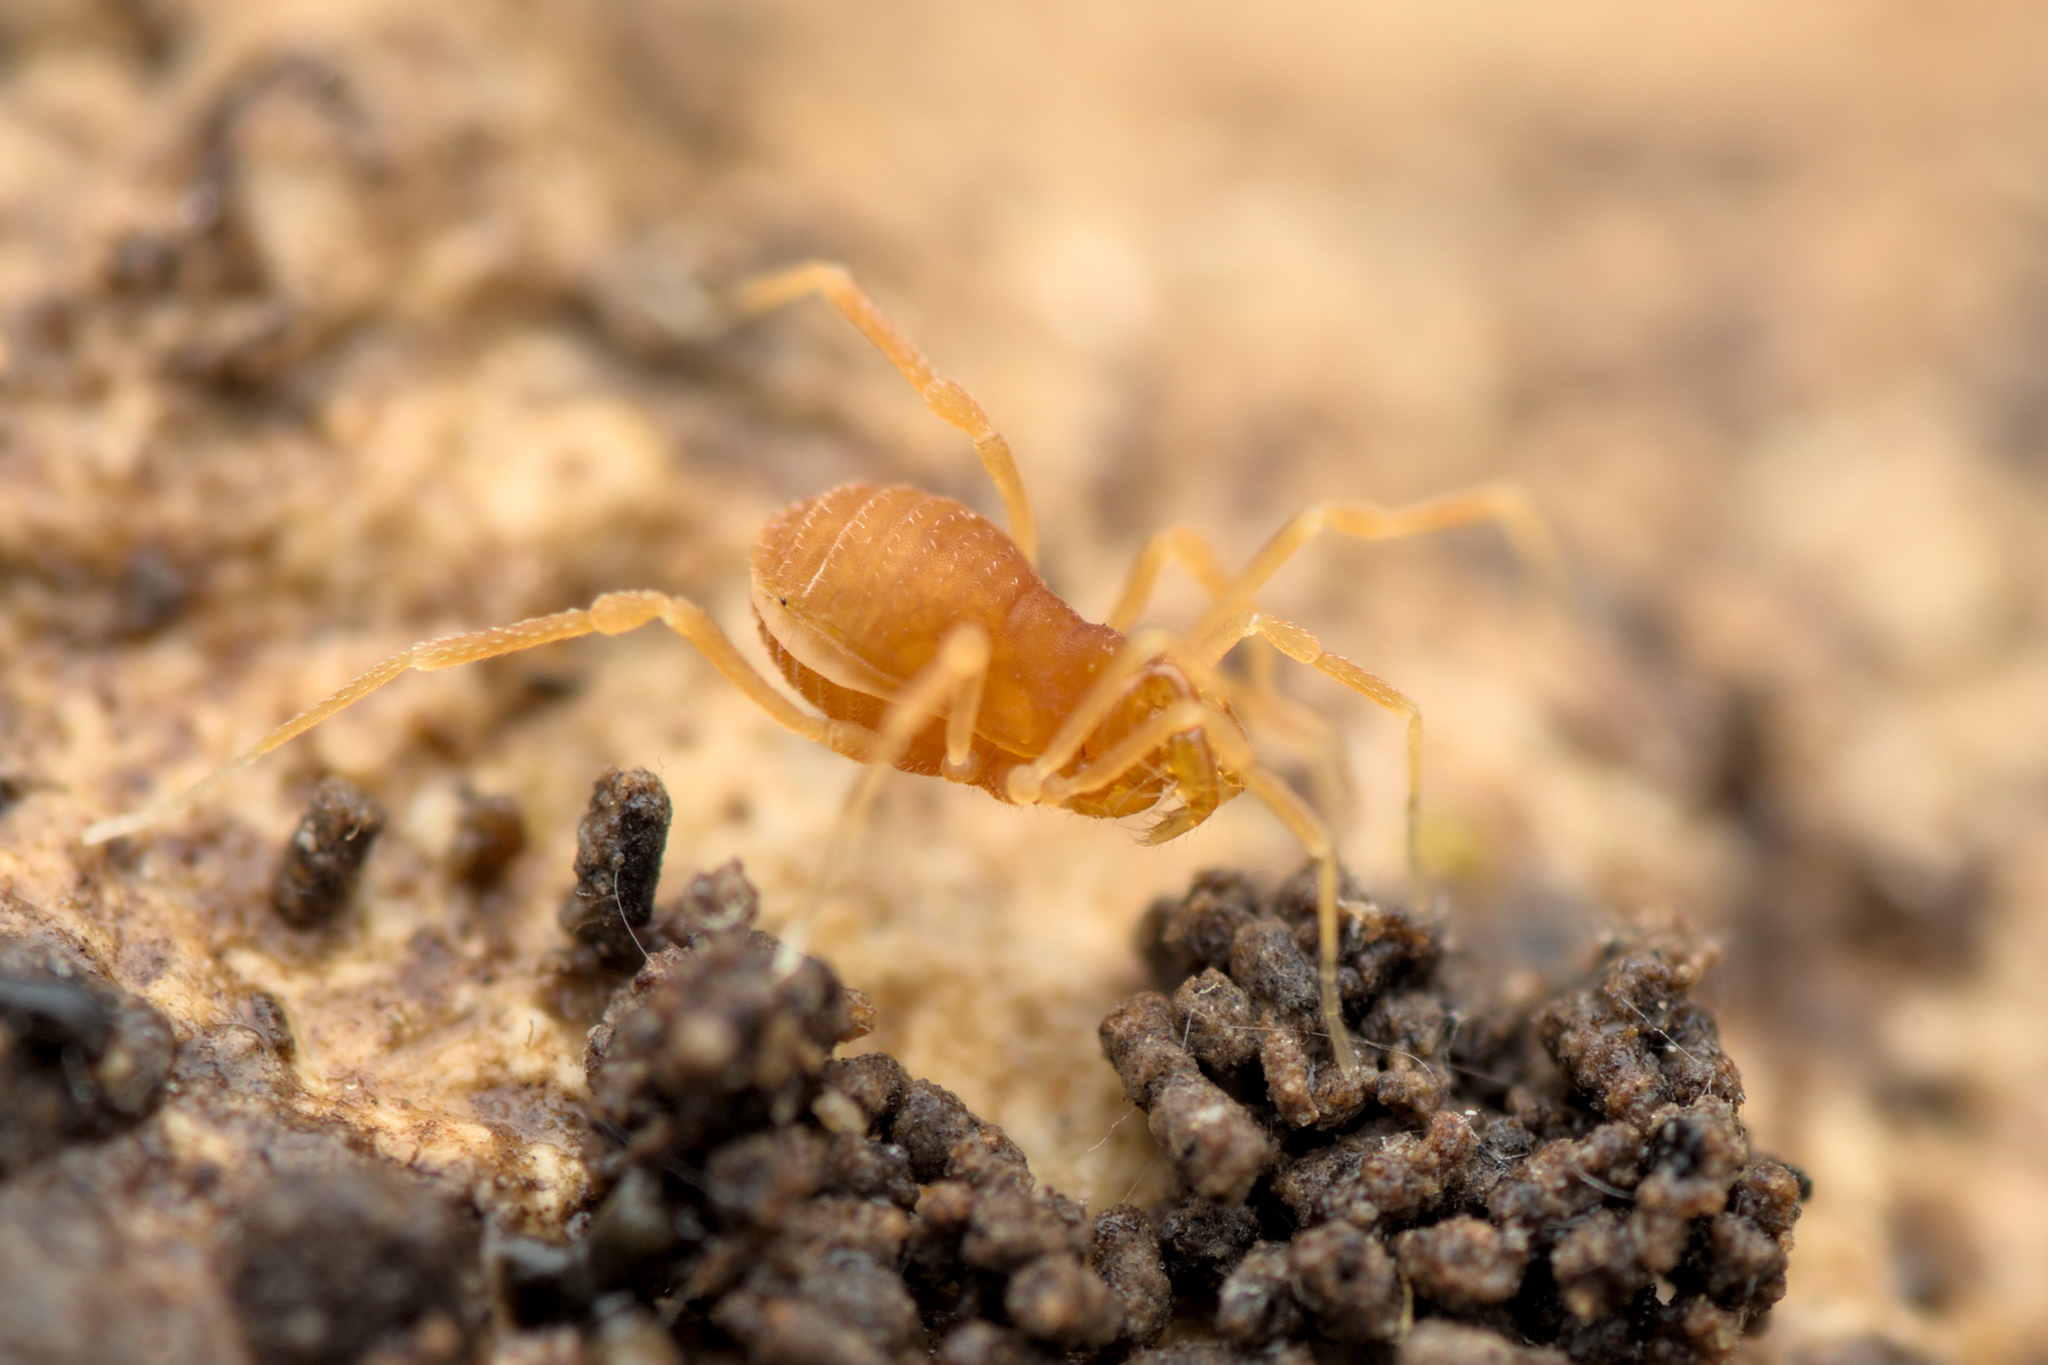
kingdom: Animalia
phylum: Arthropoda
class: Arachnida
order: Opiliones
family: Phalangodidae
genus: Scotolemon
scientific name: Scotolemon doriae
